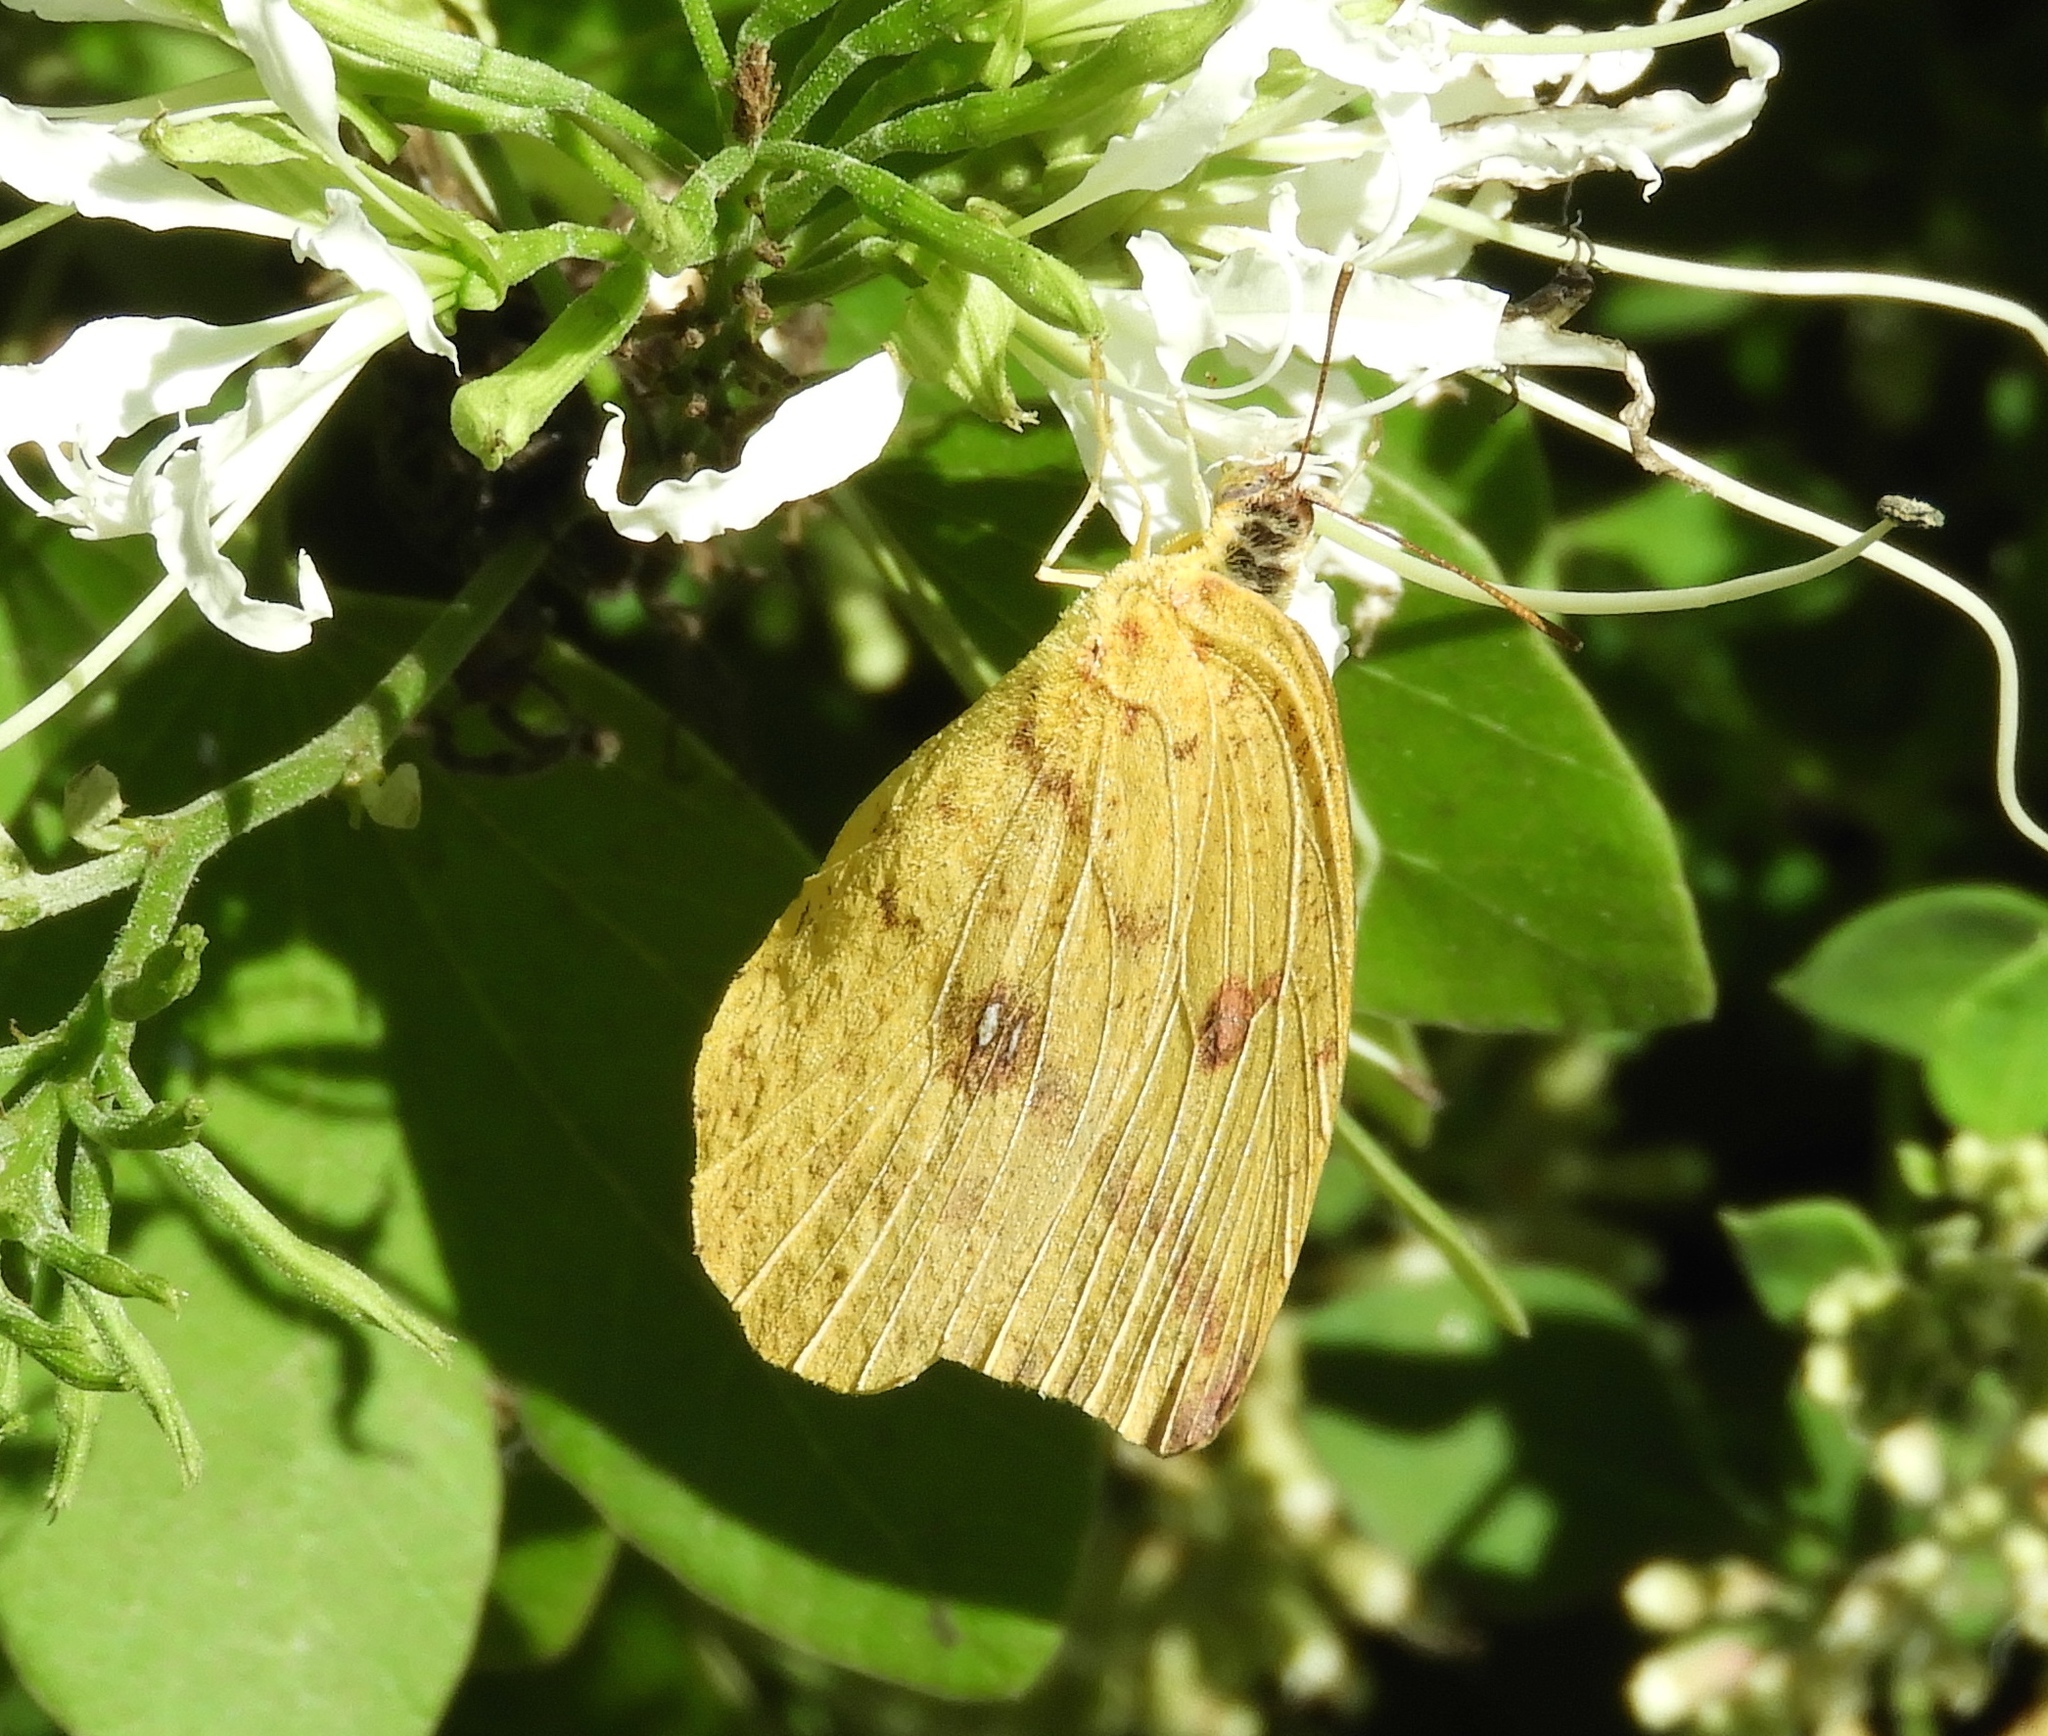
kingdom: Animalia
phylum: Arthropoda
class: Insecta
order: Lepidoptera
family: Pieridae
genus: Phoebis
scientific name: Phoebis agarithe
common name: Large orange sulphur
